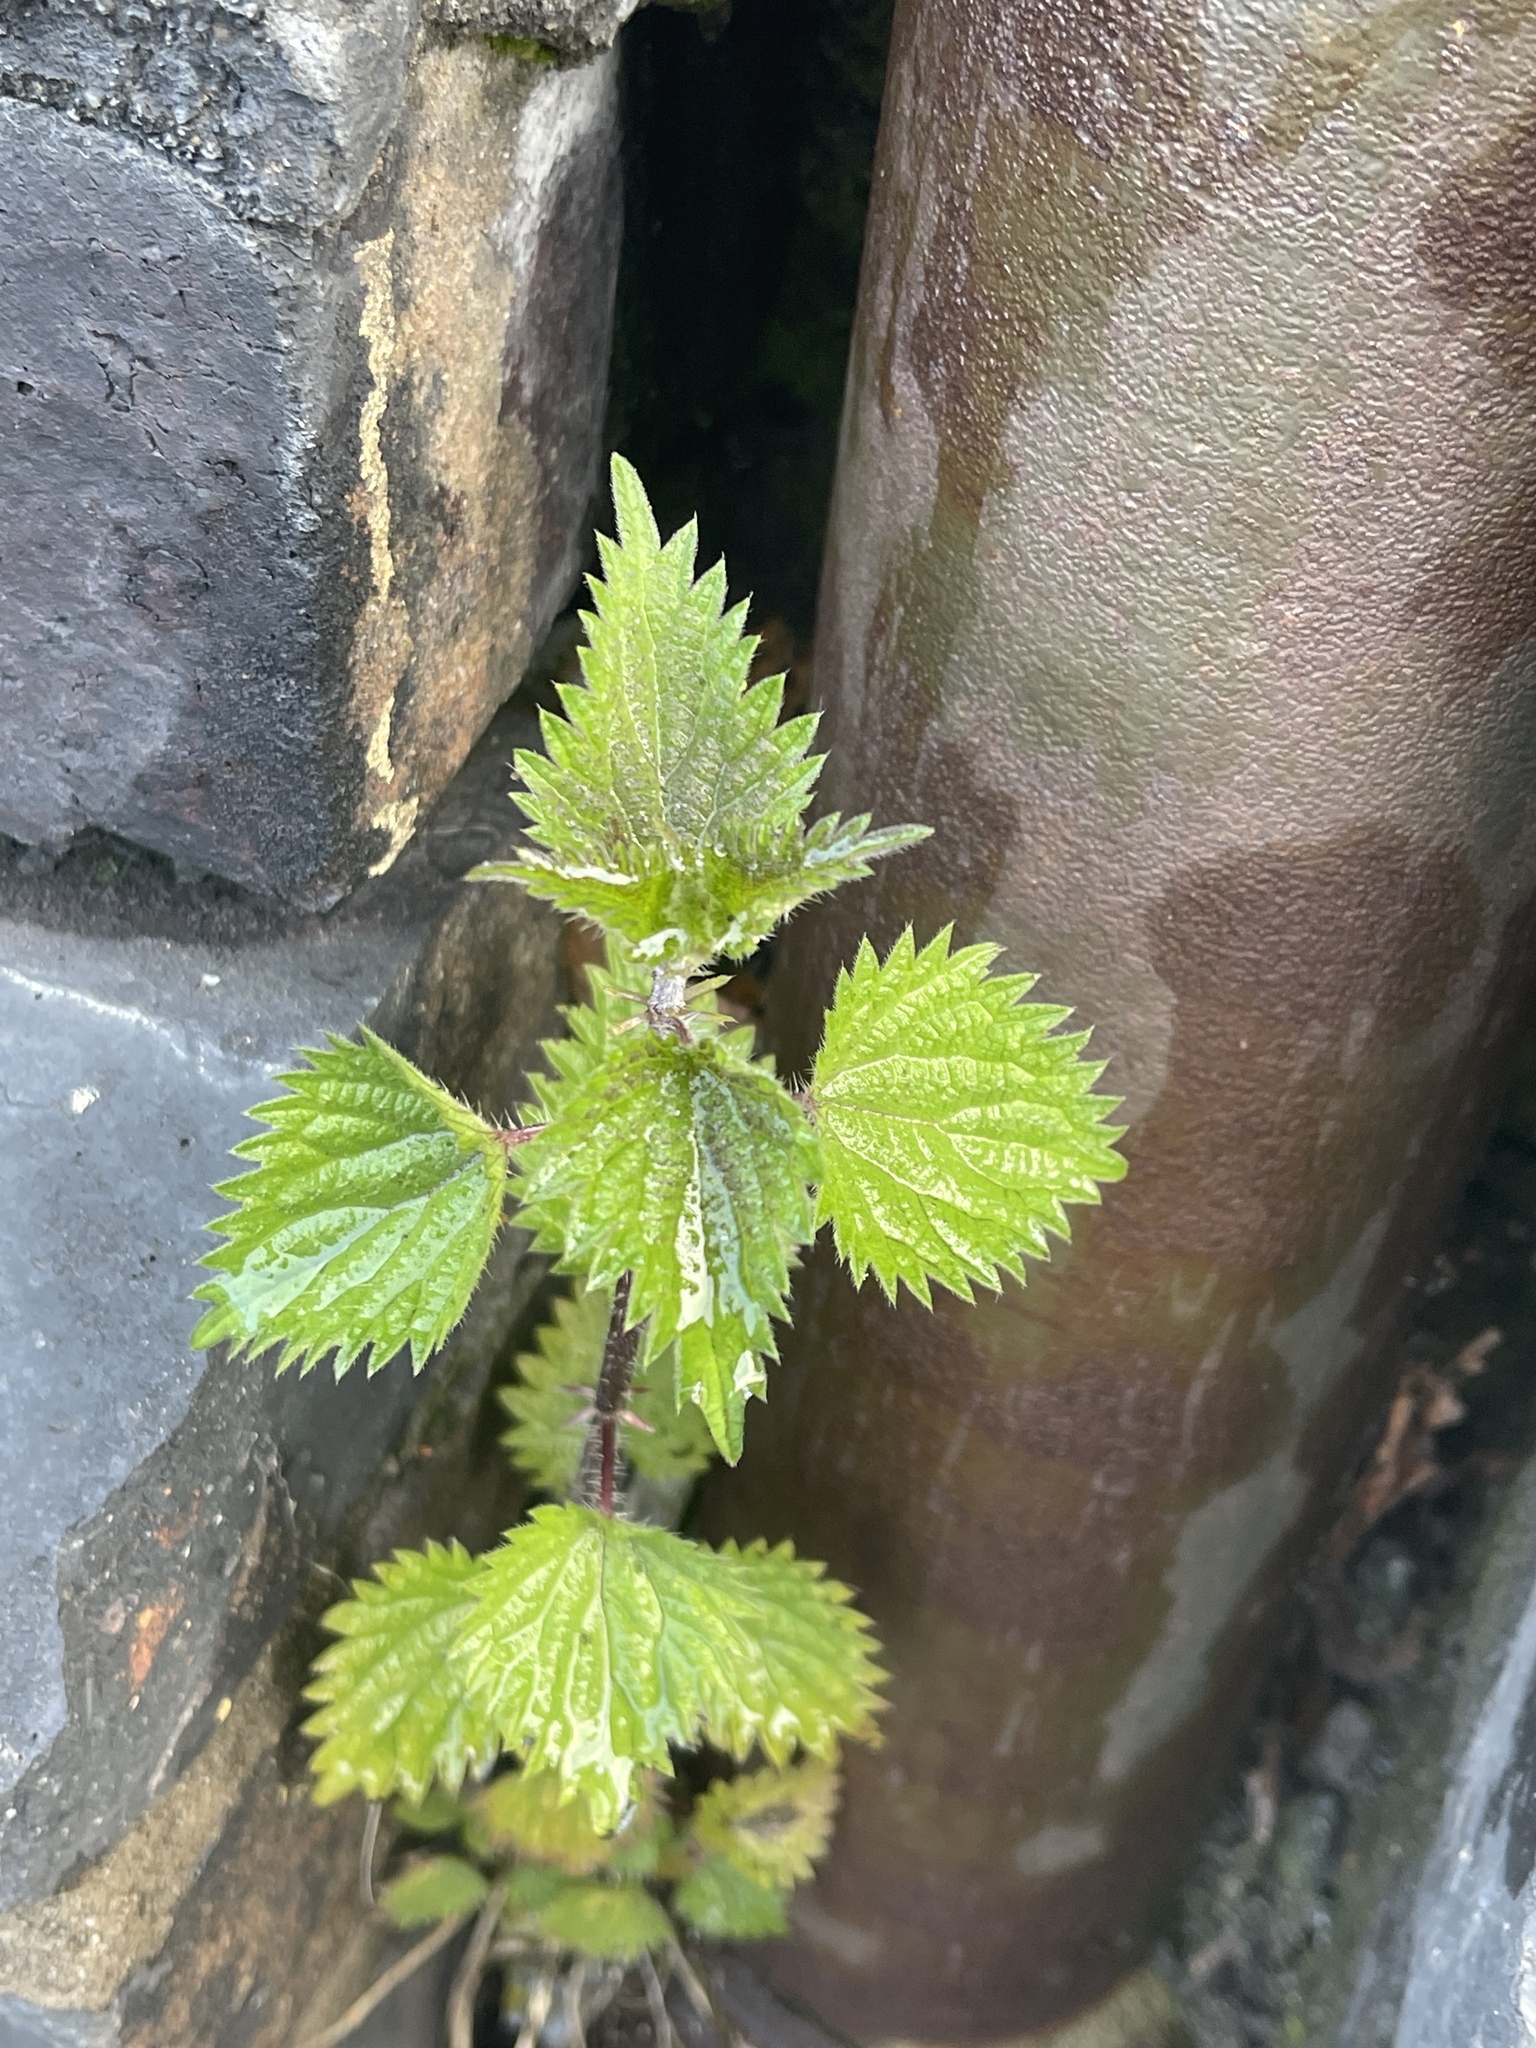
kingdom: Plantae
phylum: Tracheophyta
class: Magnoliopsida
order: Rosales
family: Urticaceae
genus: Urtica
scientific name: Urtica dioica
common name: Common nettle
